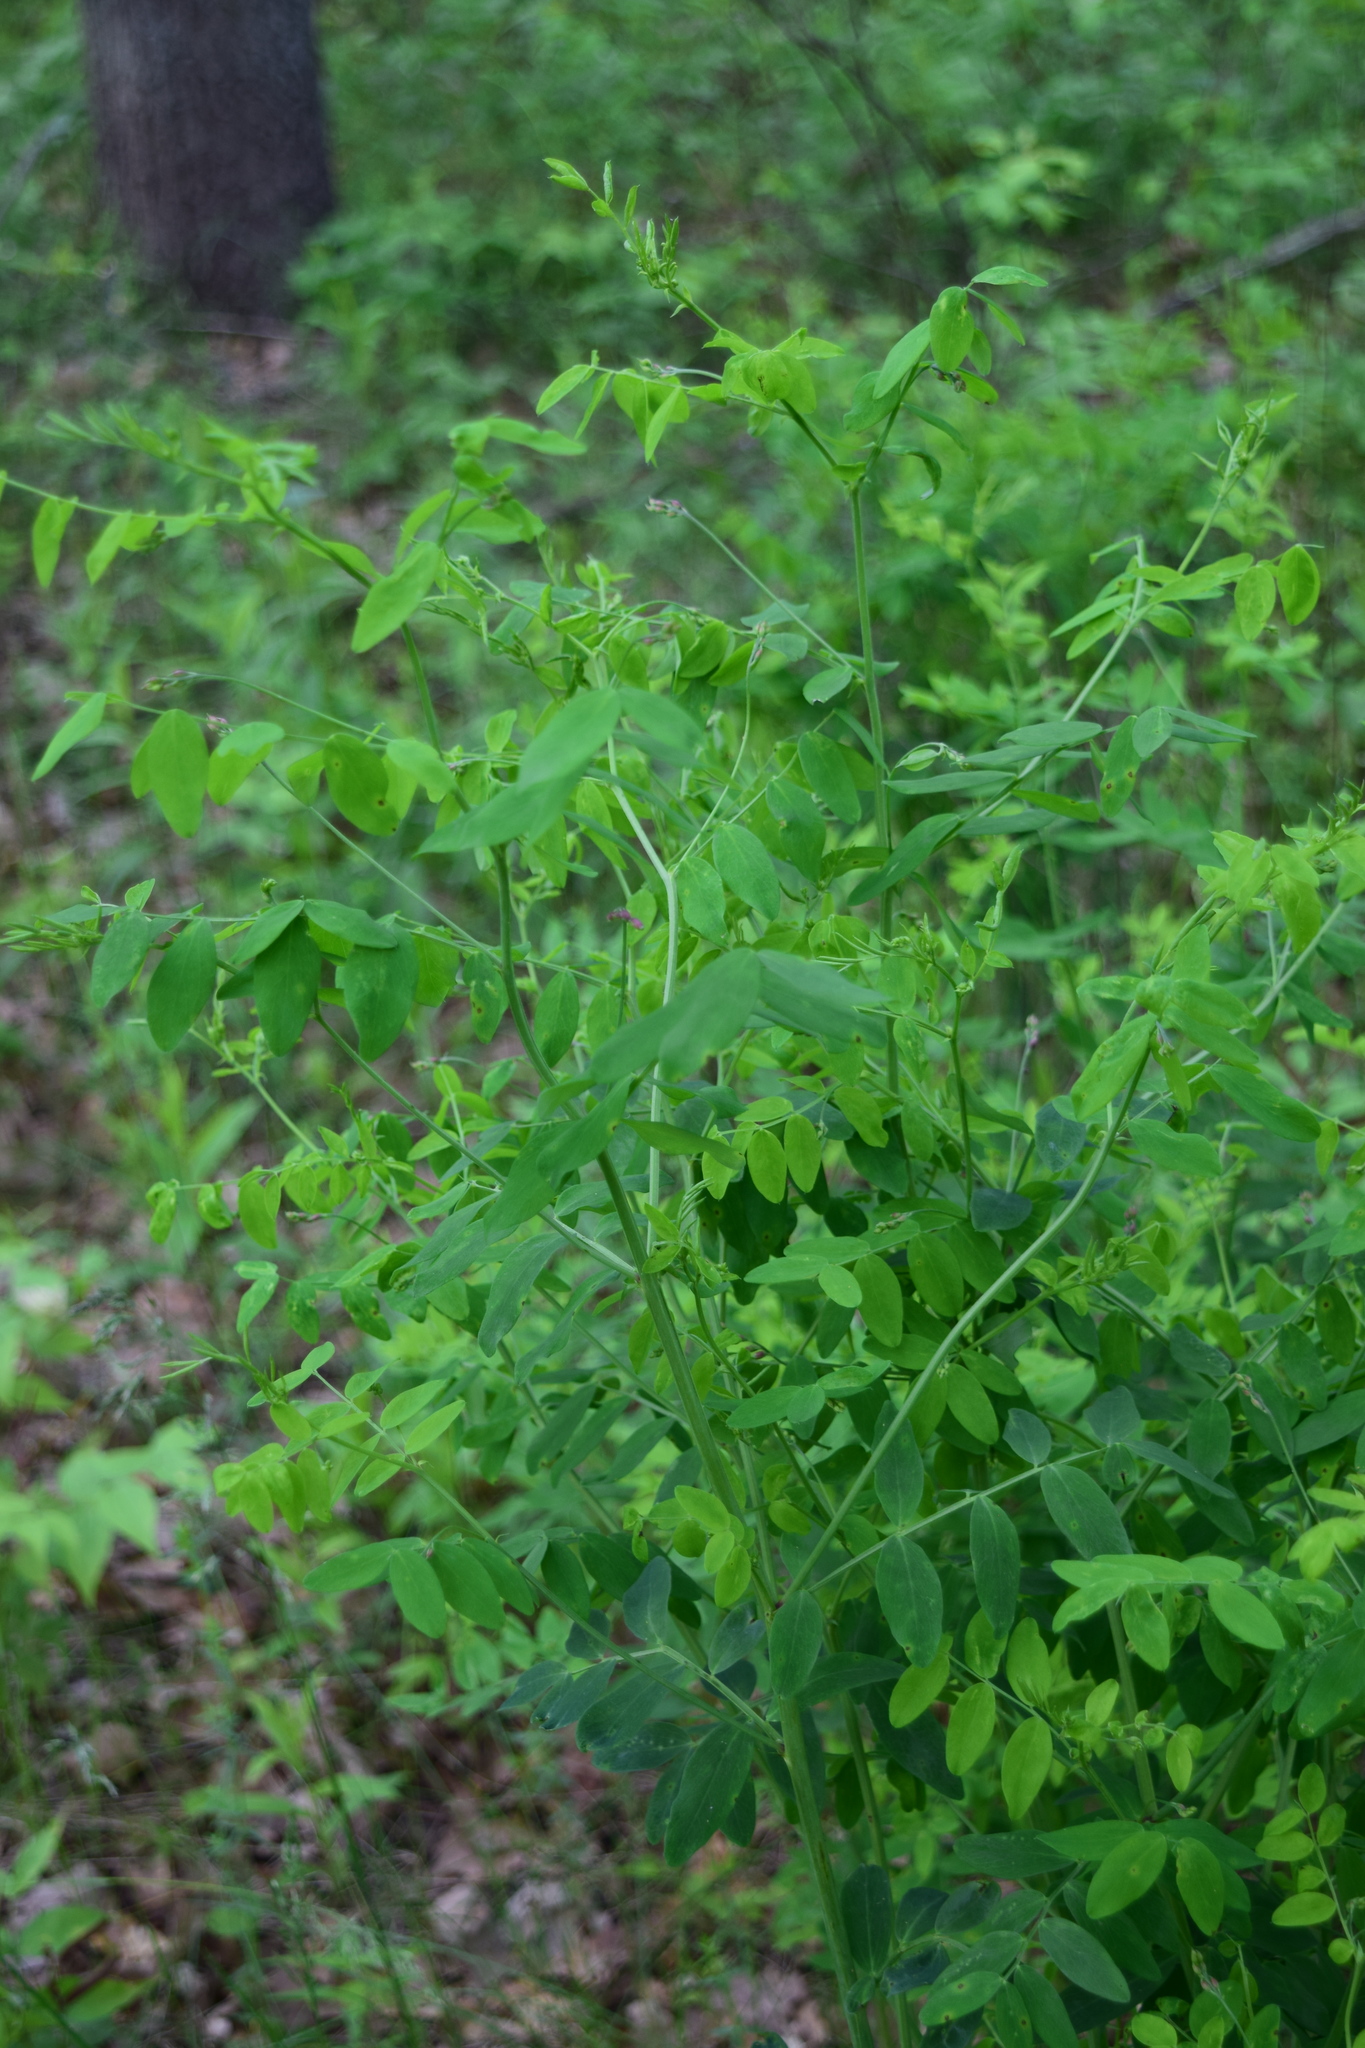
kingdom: Plantae
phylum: Tracheophyta
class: Magnoliopsida
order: Fabales
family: Fabaceae
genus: Lathyrus
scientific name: Lathyrus niger
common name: Black pea
